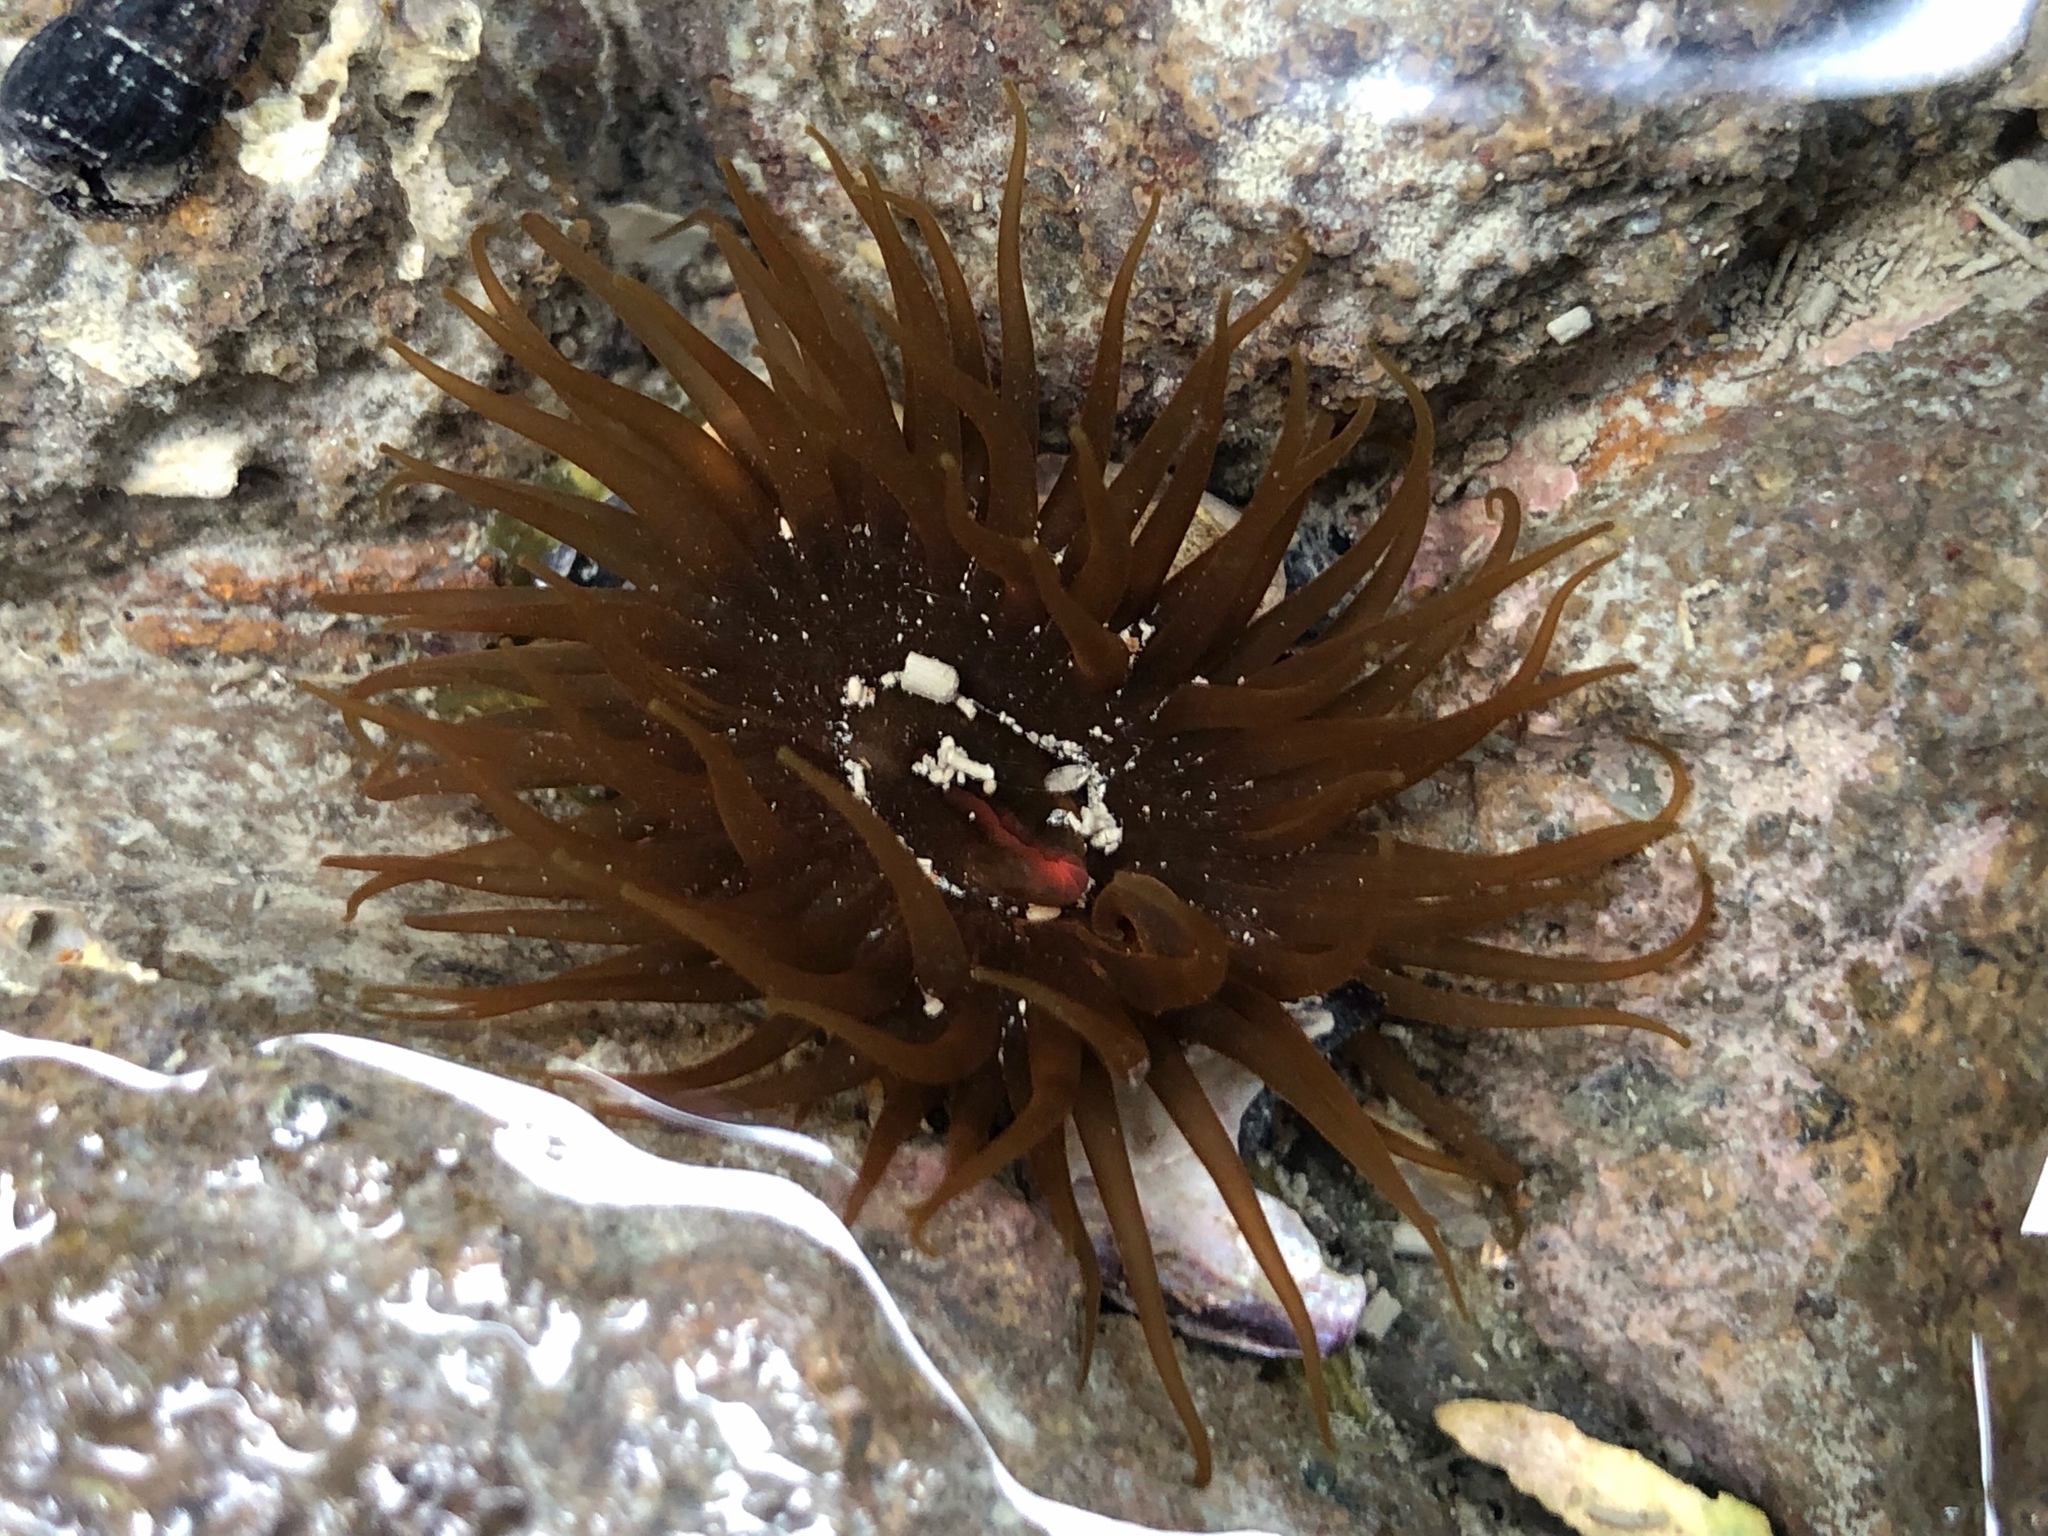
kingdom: Animalia
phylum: Cnidaria
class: Anthozoa
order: Actiniaria
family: Actiniidae
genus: Isactinia
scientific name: Isactinia olivacea
